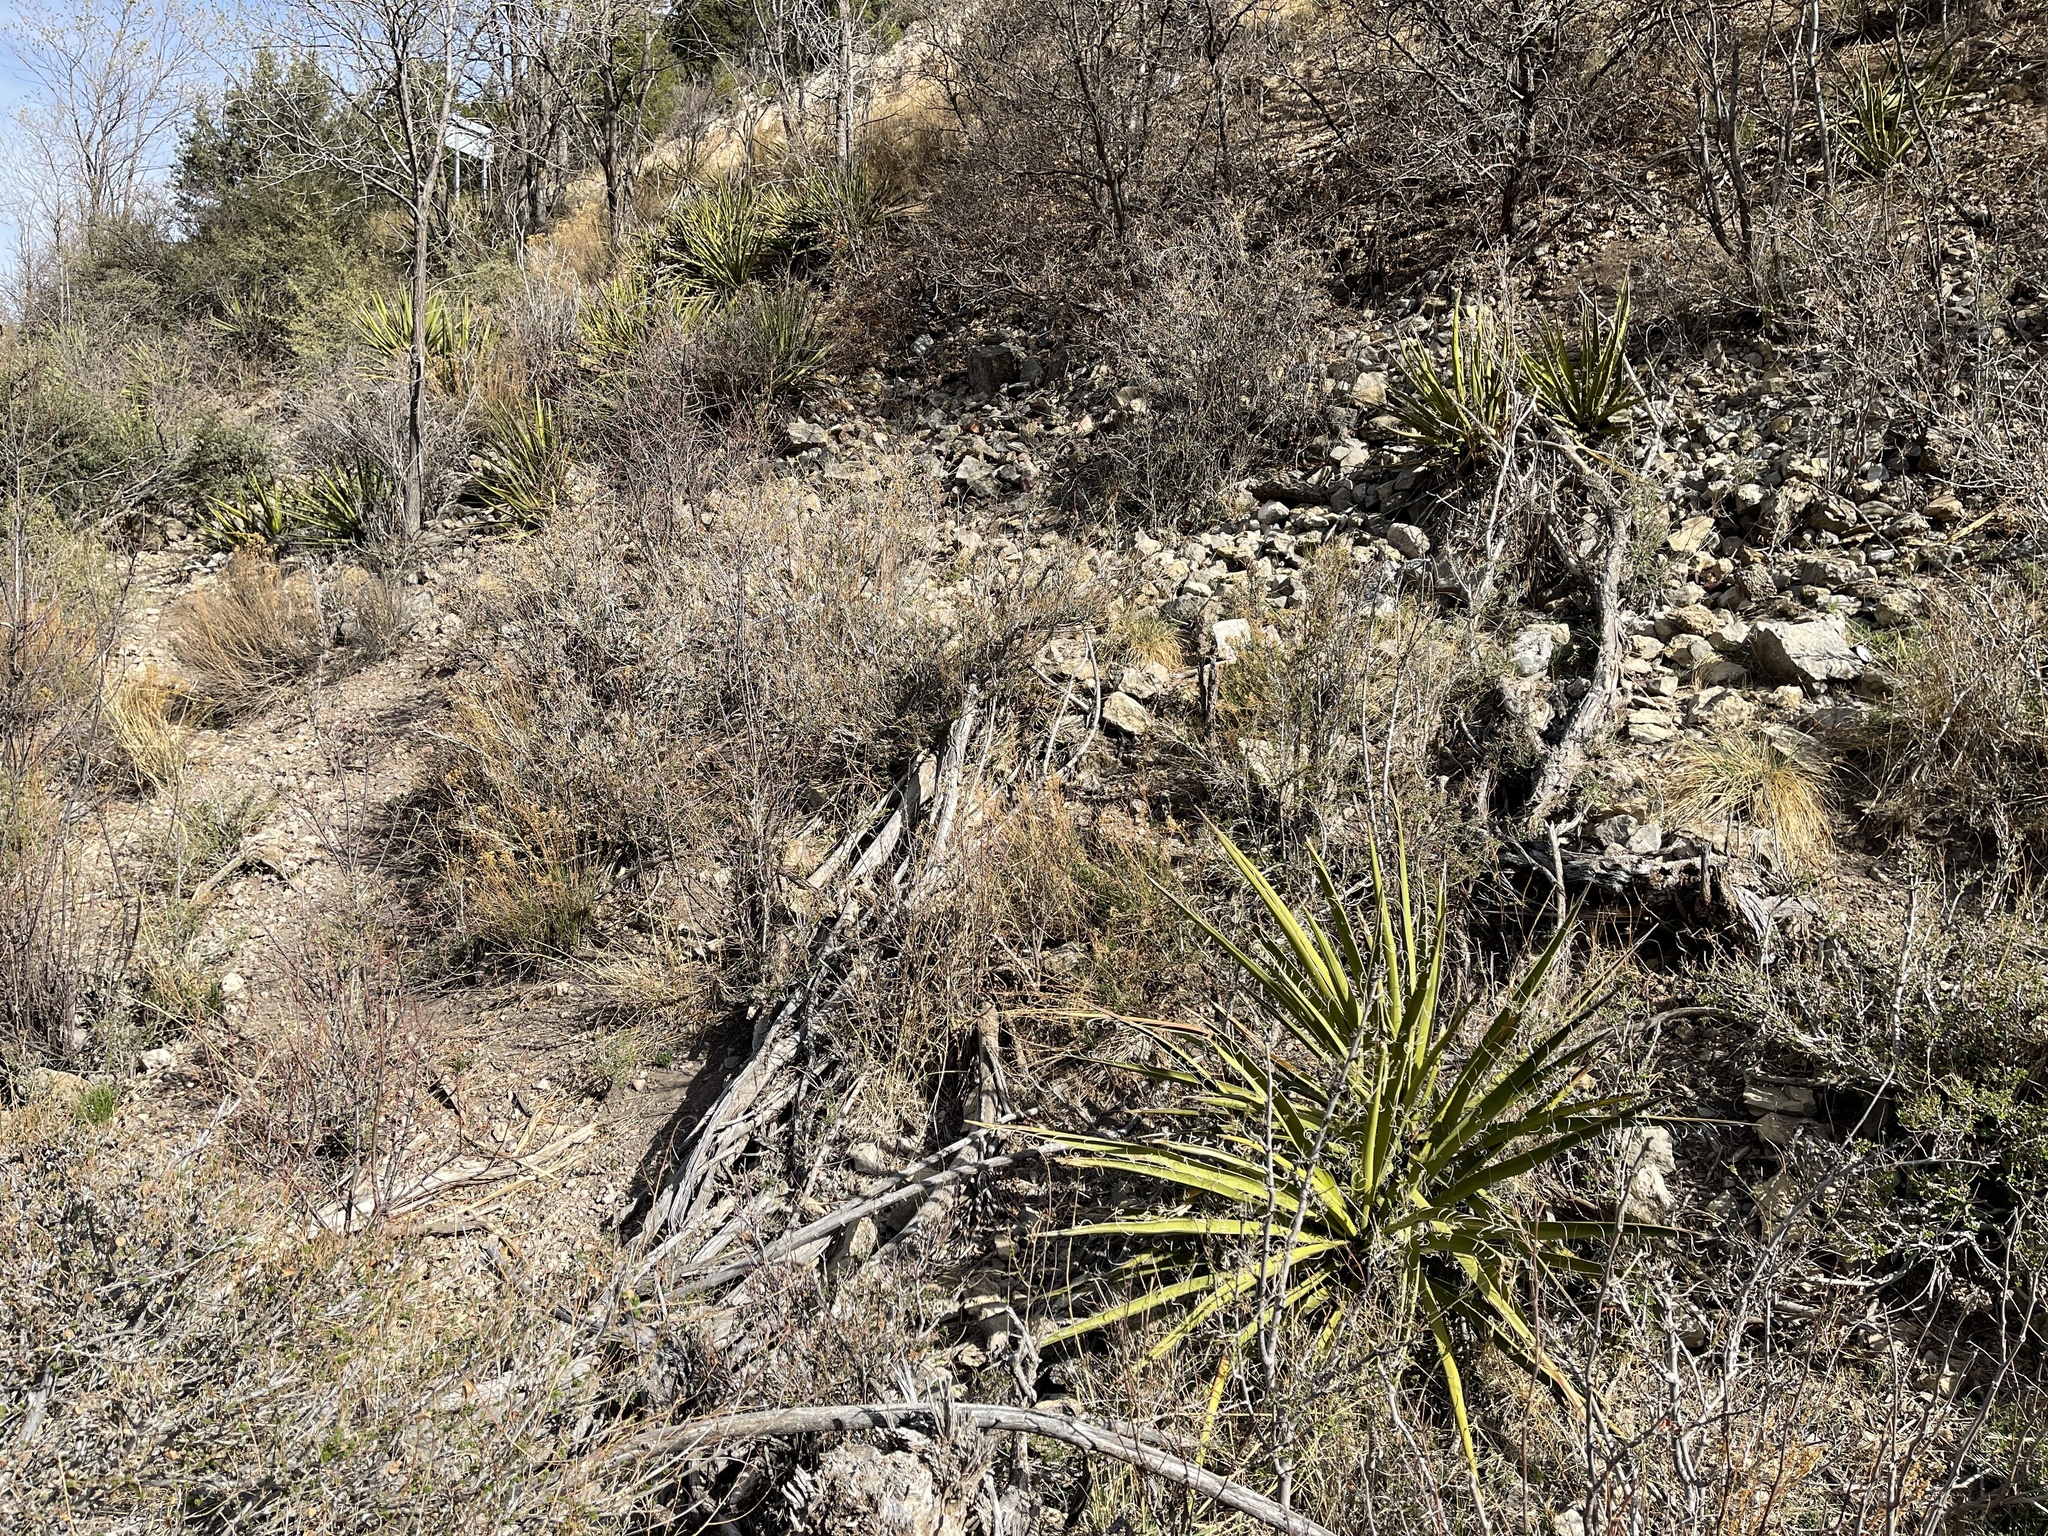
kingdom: Plantae
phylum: Tracheophyta
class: Liliopsida
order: Asparagales
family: Asparagaceae
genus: Yucca
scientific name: Yucca baccata
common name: Banana yucca
